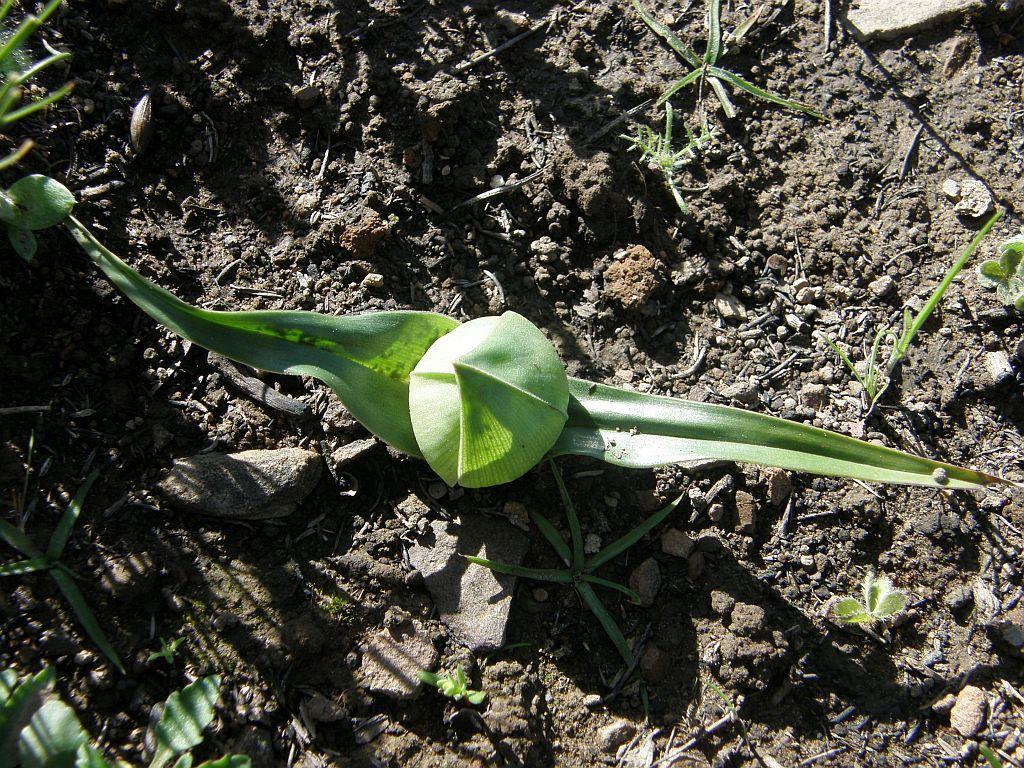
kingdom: Plantae
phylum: Tracheophyta
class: Liliopsida
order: Liliales
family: Colchicaceae
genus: Colchicum
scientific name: Colchicum eucomoides
